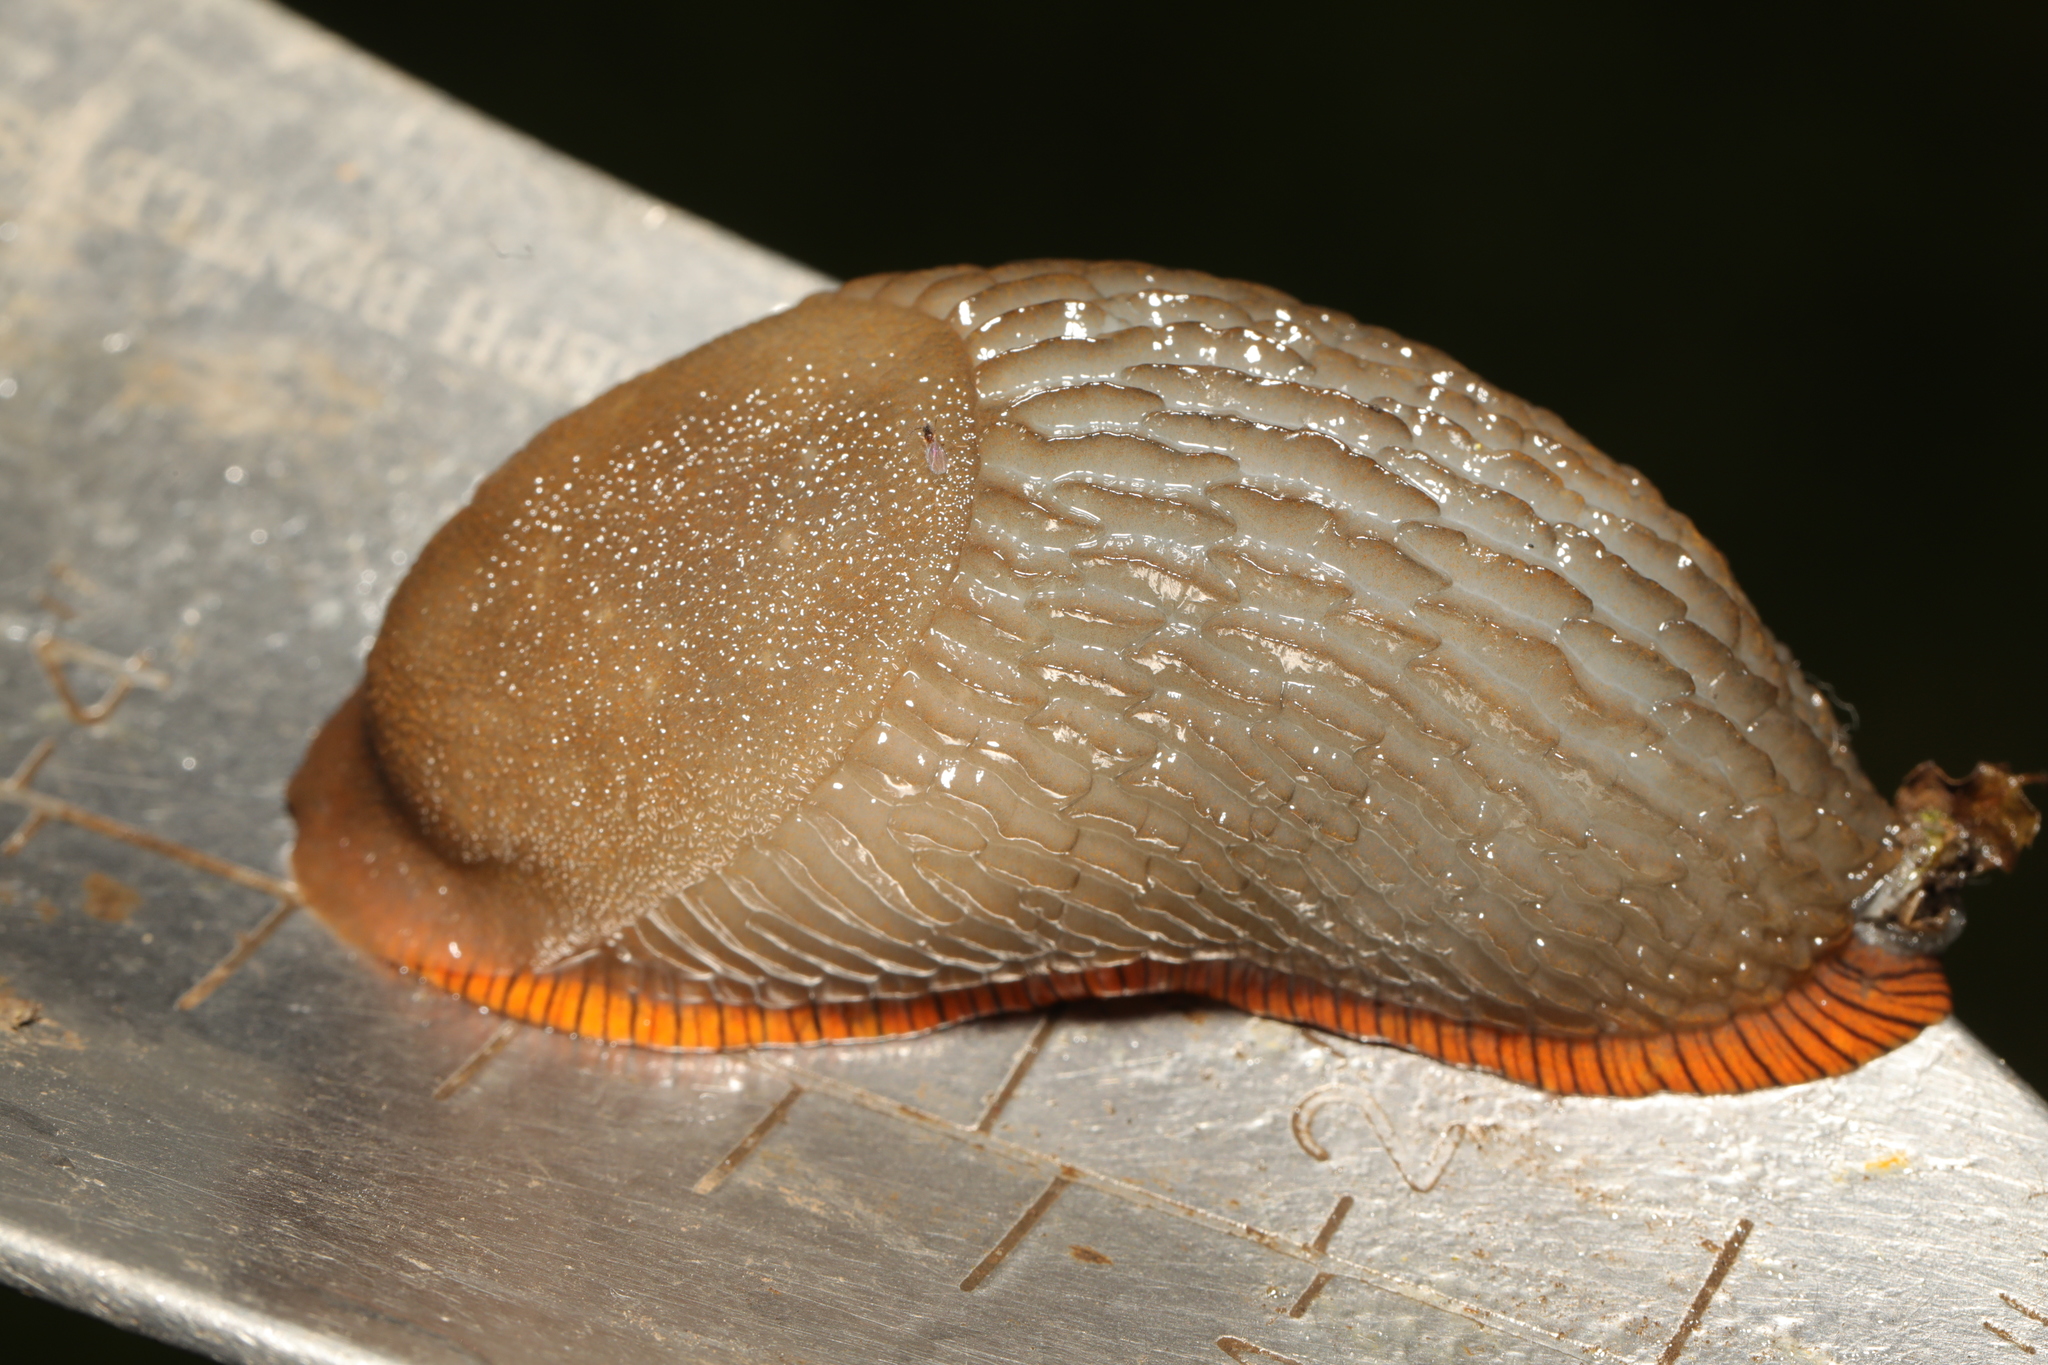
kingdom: Animalia
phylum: Mollusca
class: Gastropoda
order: Stylommatophora
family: Arionidae
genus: Arion
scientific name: Arion
